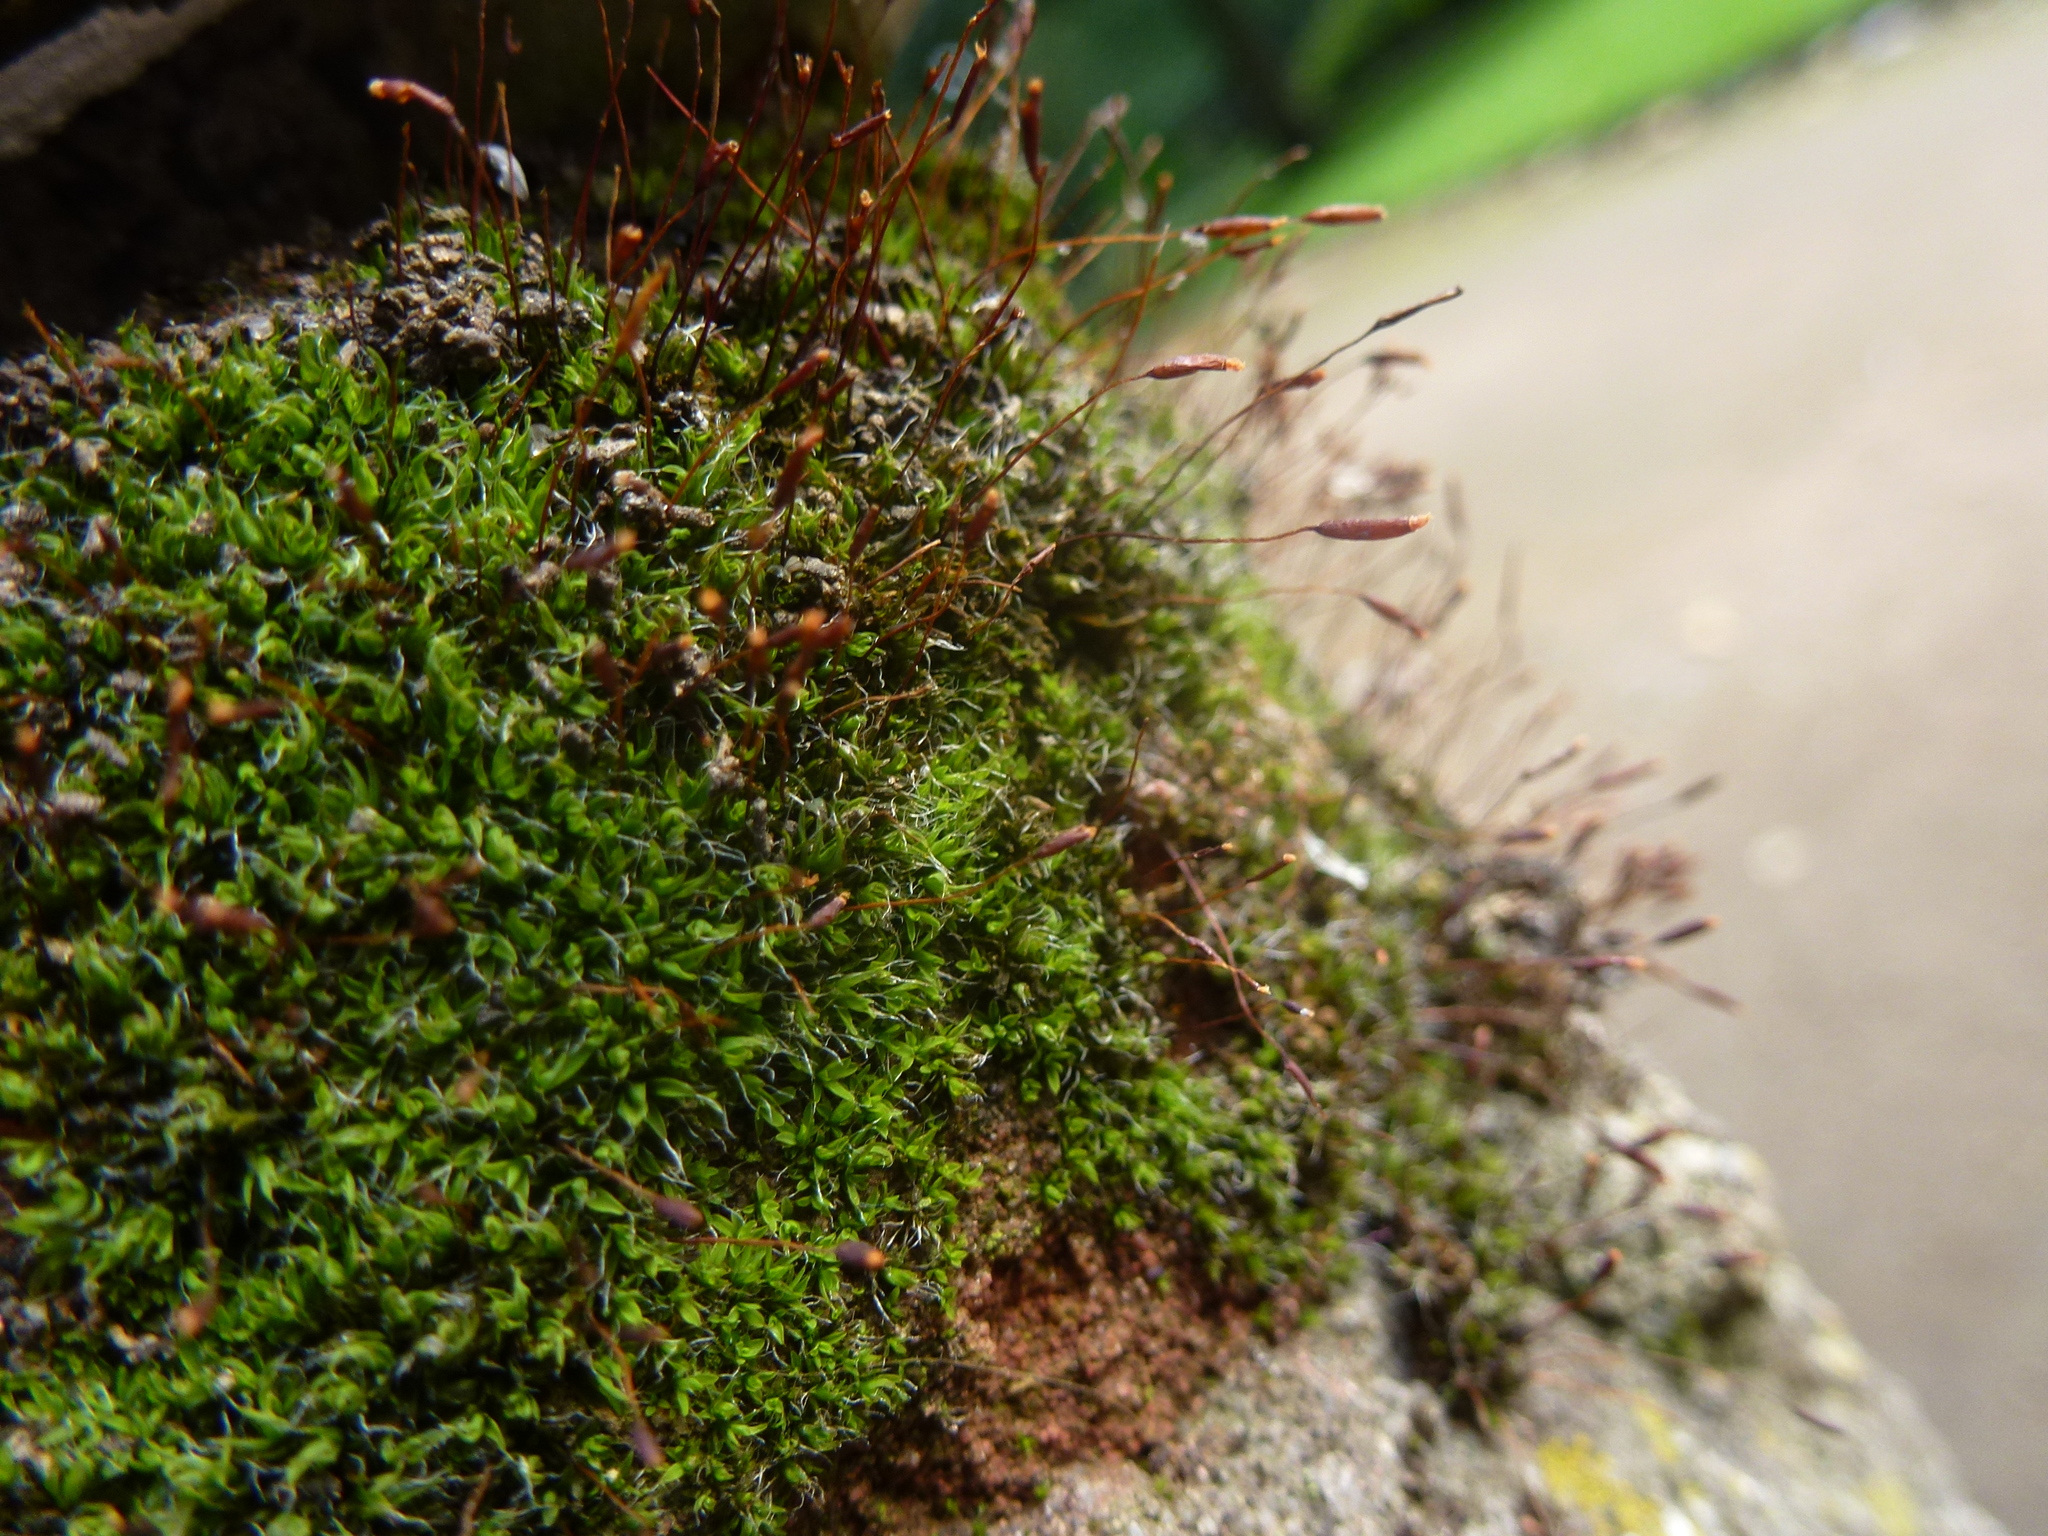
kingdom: Plantae
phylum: Bryophyta
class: Bryopsida
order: Pottiales
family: Pottiaceae
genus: Tortula
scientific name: Tortula muralis
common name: Wall screw-moss
